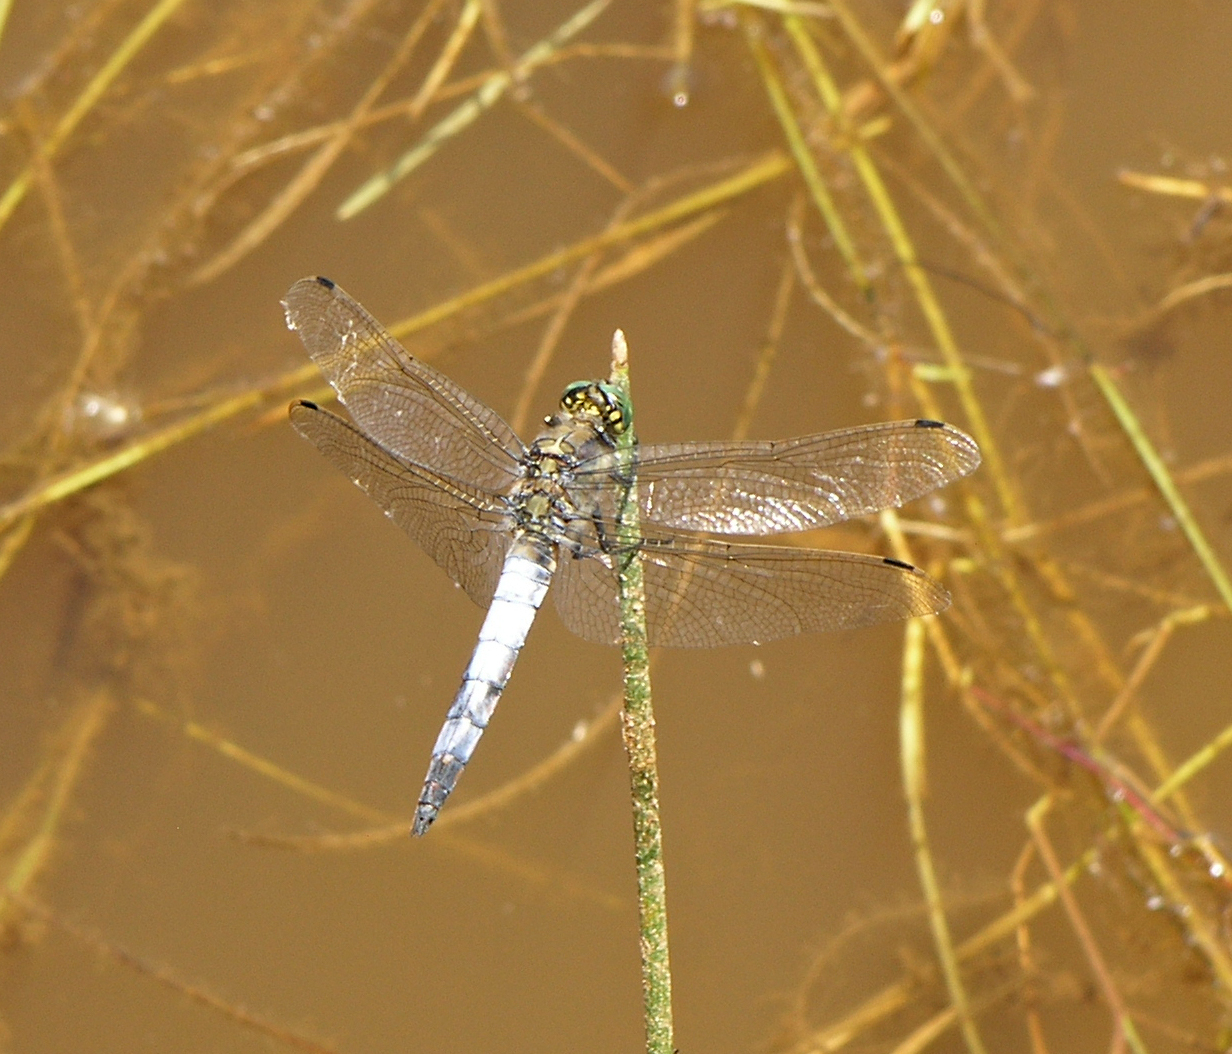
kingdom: Animalia
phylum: Arthropoda
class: Insecta
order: Odonata
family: Libellulidae
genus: Orthetrum
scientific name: Orthetrum cancellatum
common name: Black-tailed skimmer
